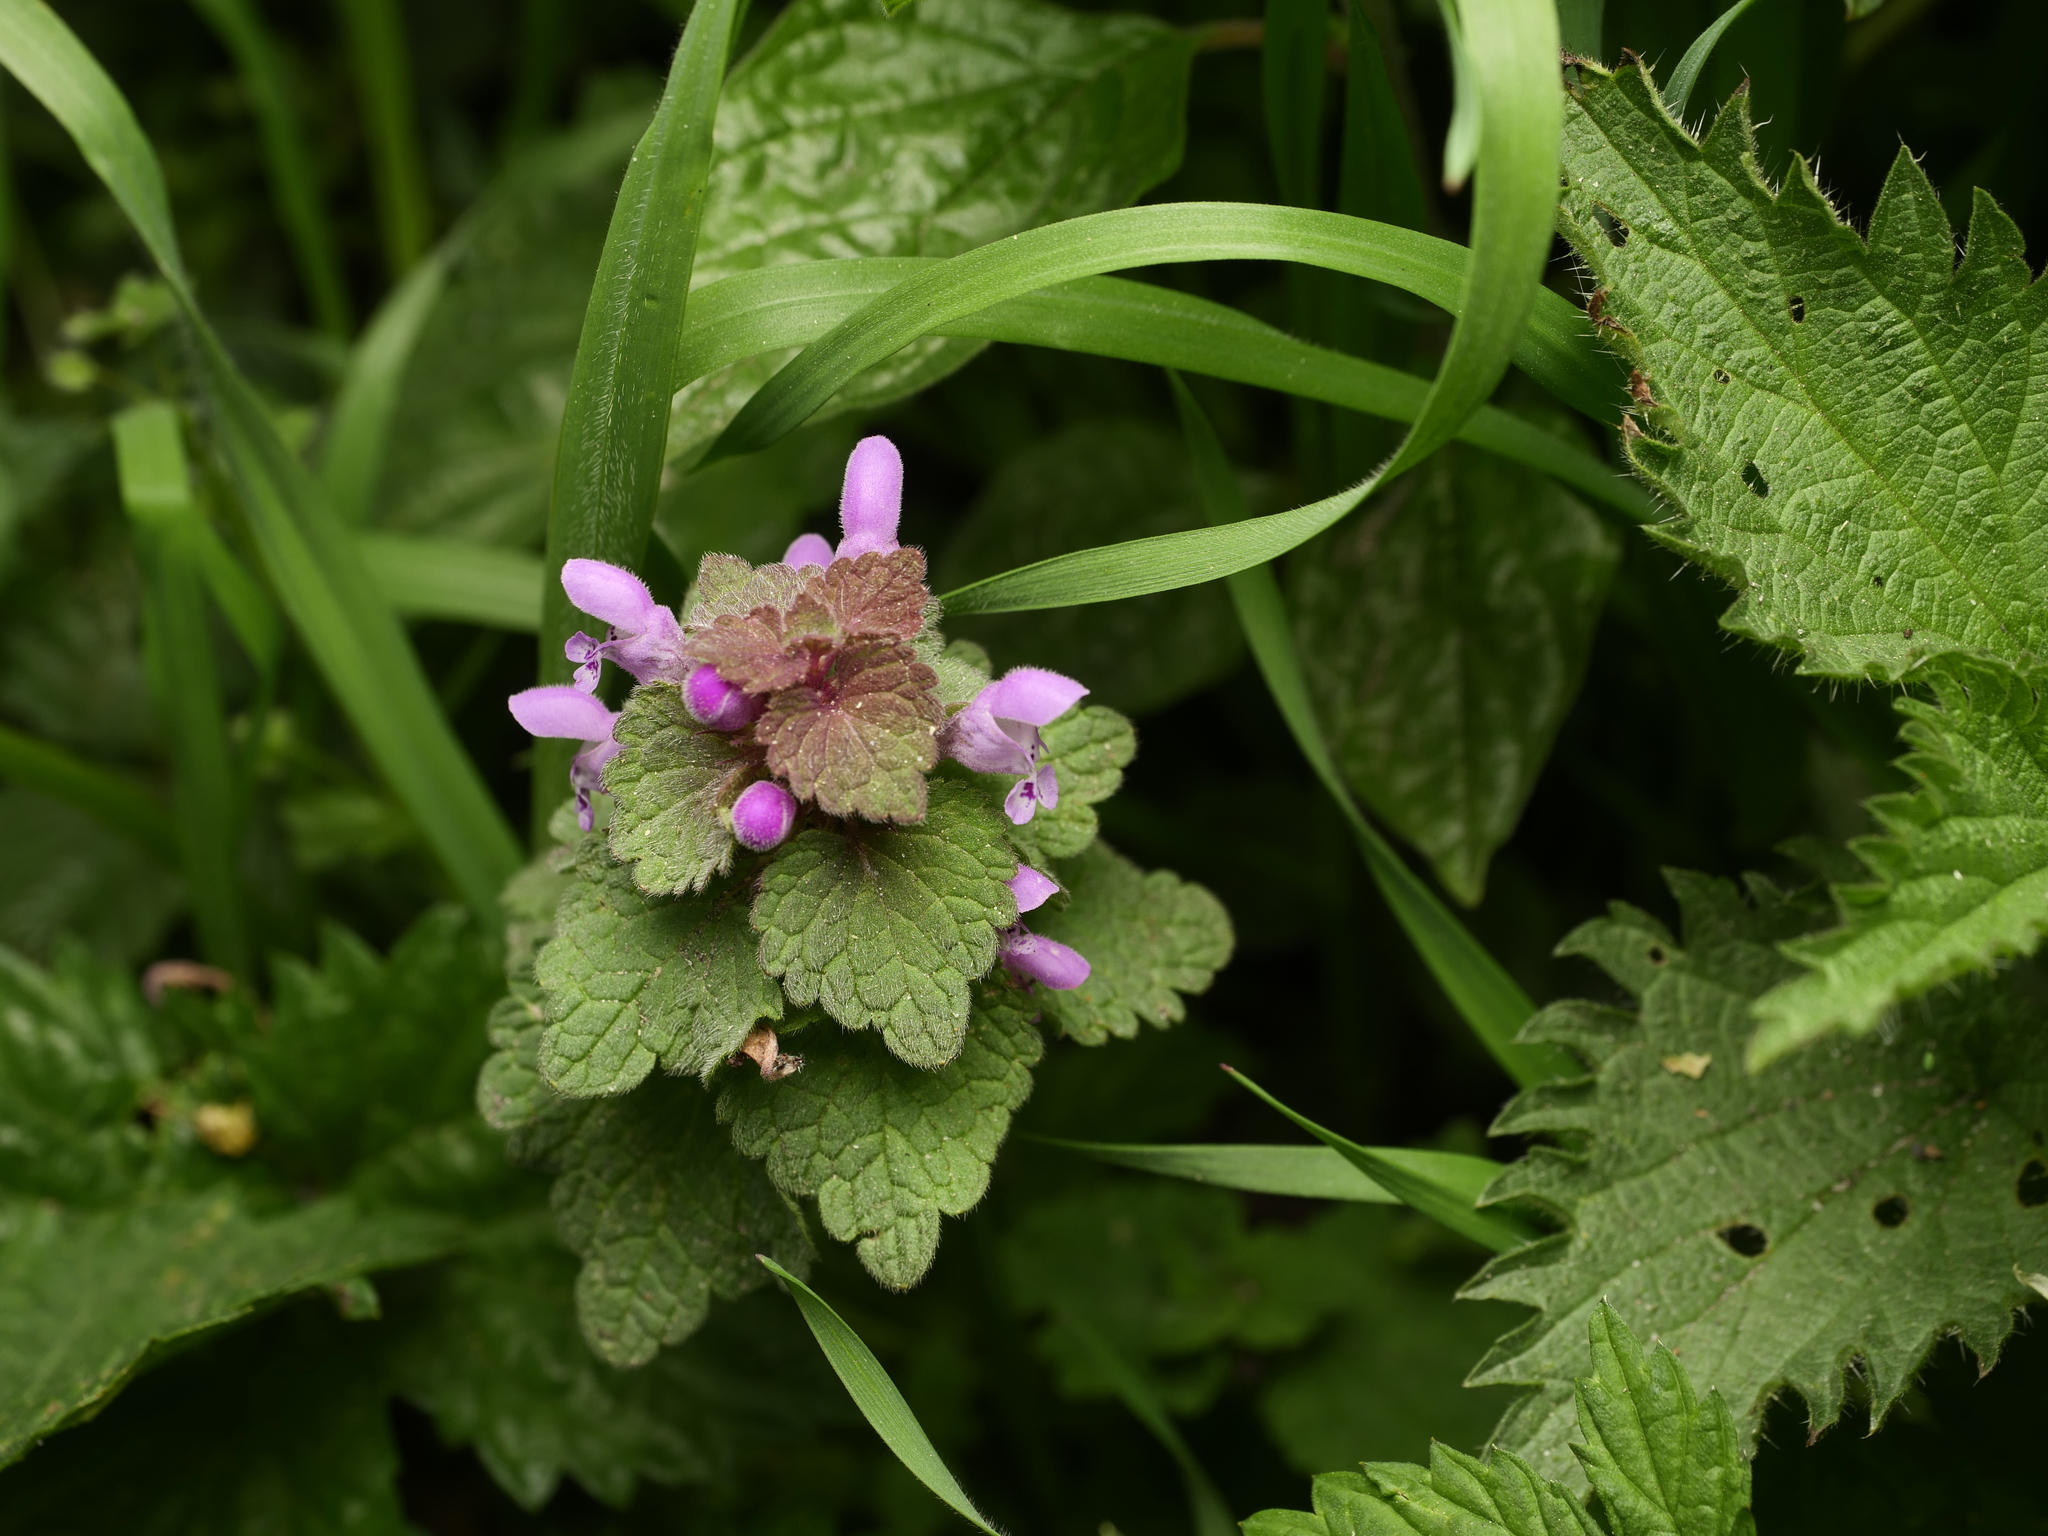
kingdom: Plantae
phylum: Tracheophyta
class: Magnoliopsida
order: Lamiales
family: Lamiaceae
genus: Lamium
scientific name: Lamium purpureum
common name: Red dead-nettle
